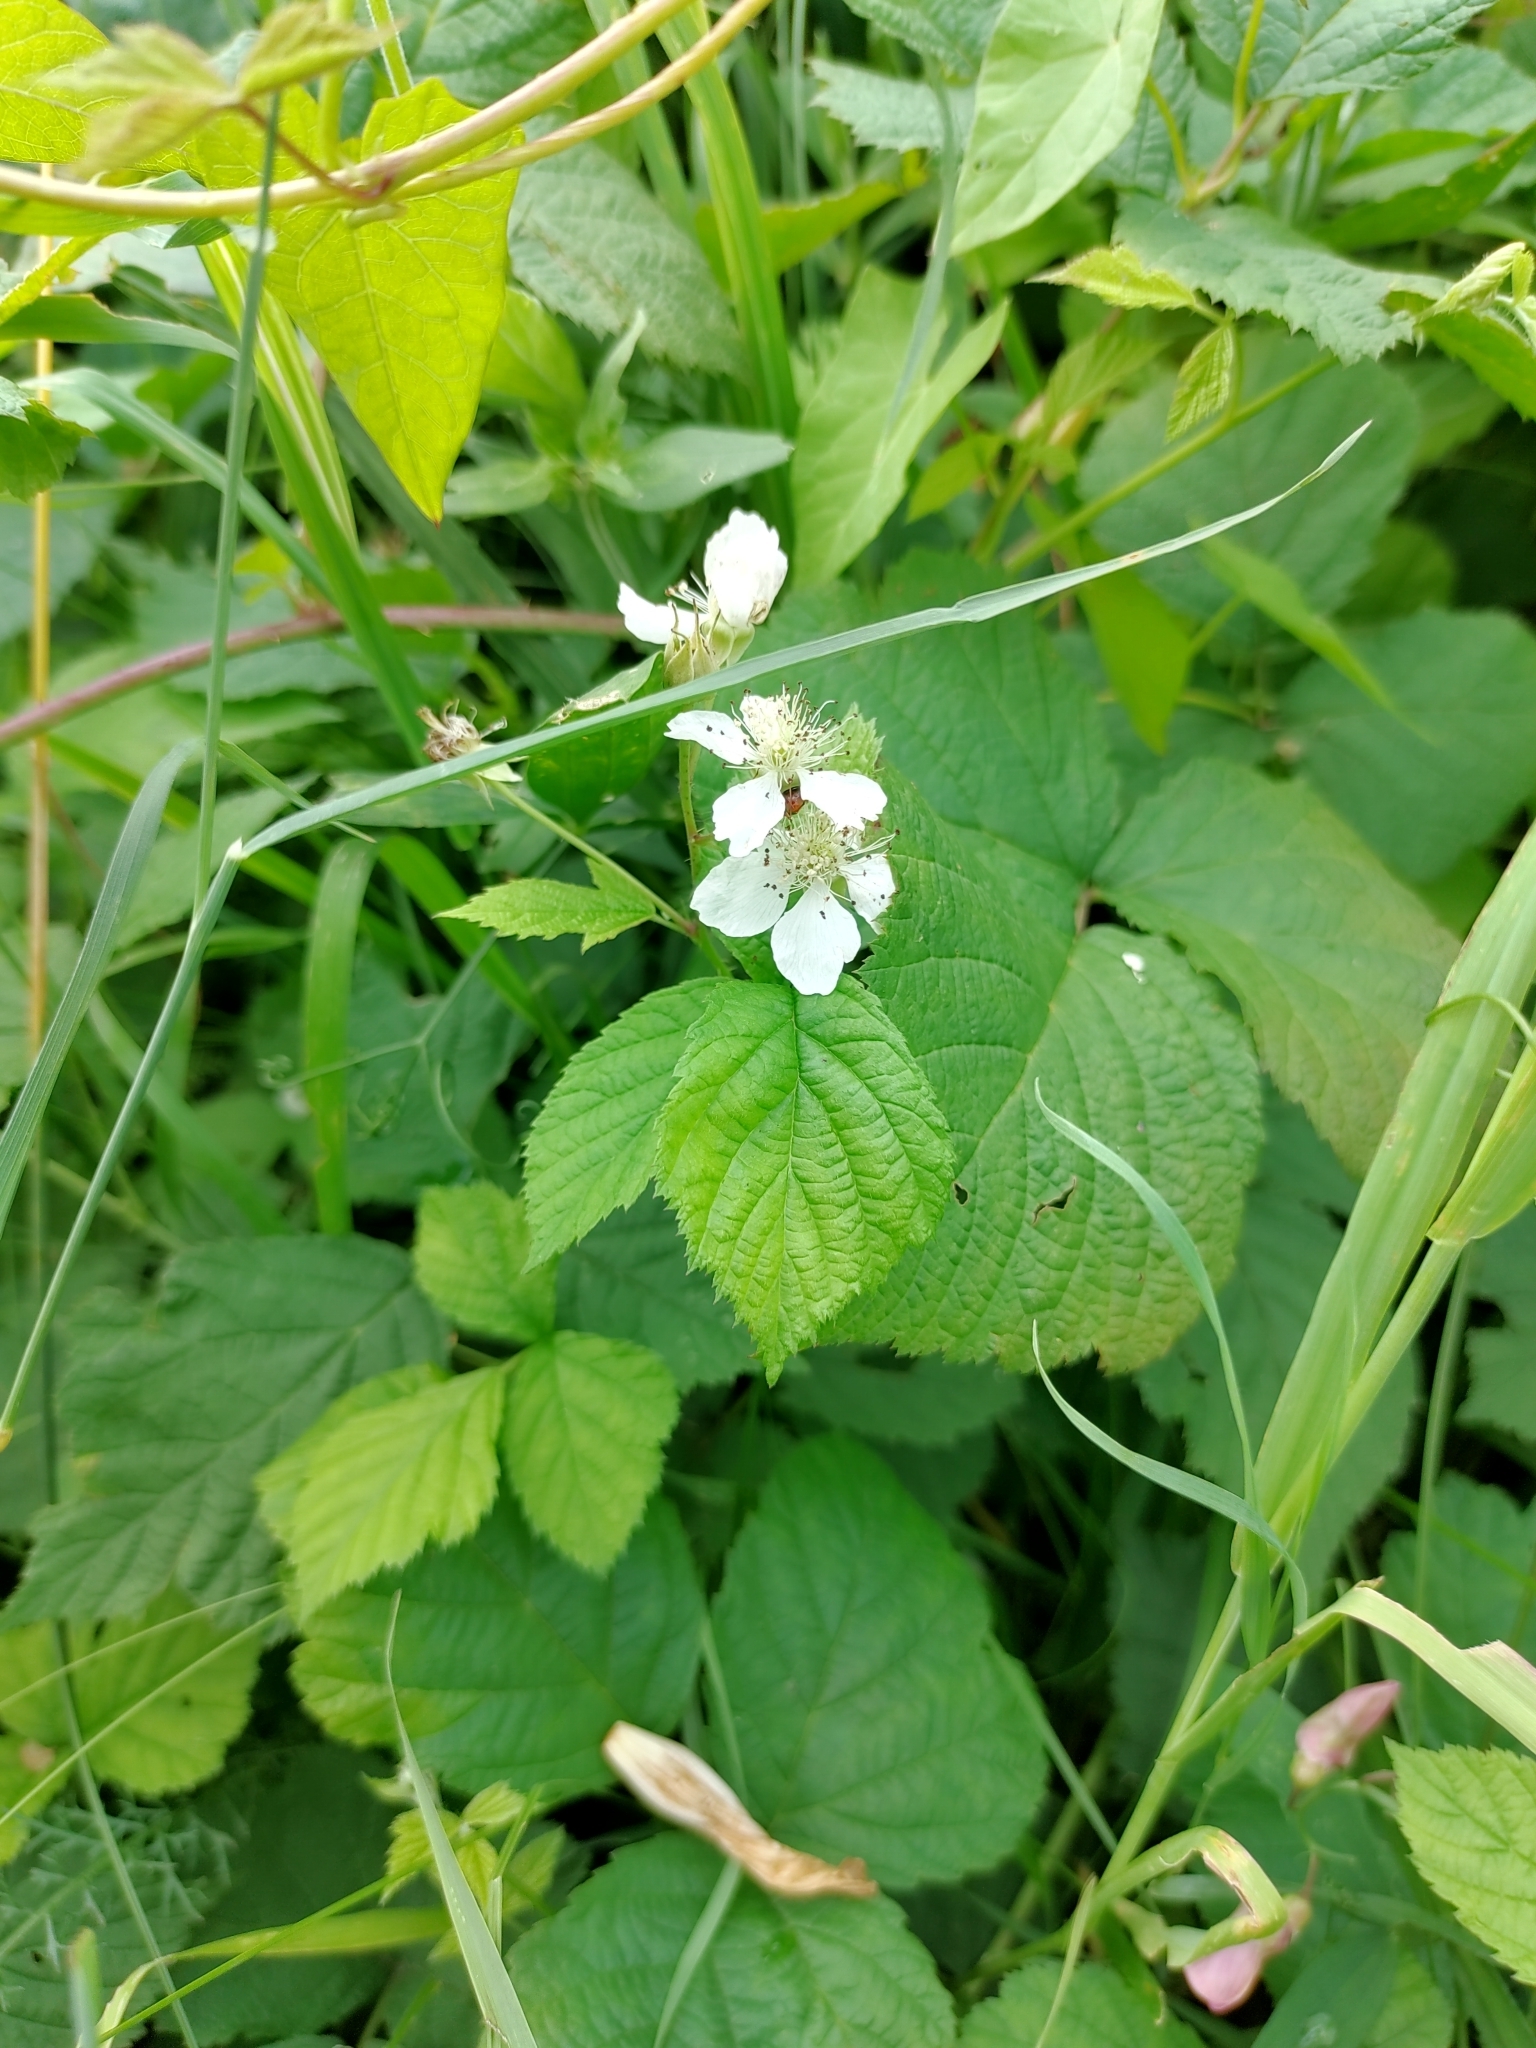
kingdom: Plantae
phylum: Tracheophyta
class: Magnoliopsida
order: Rosales
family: Rosaceae
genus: Rubus
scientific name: Rubus caesius
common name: Dewberry
